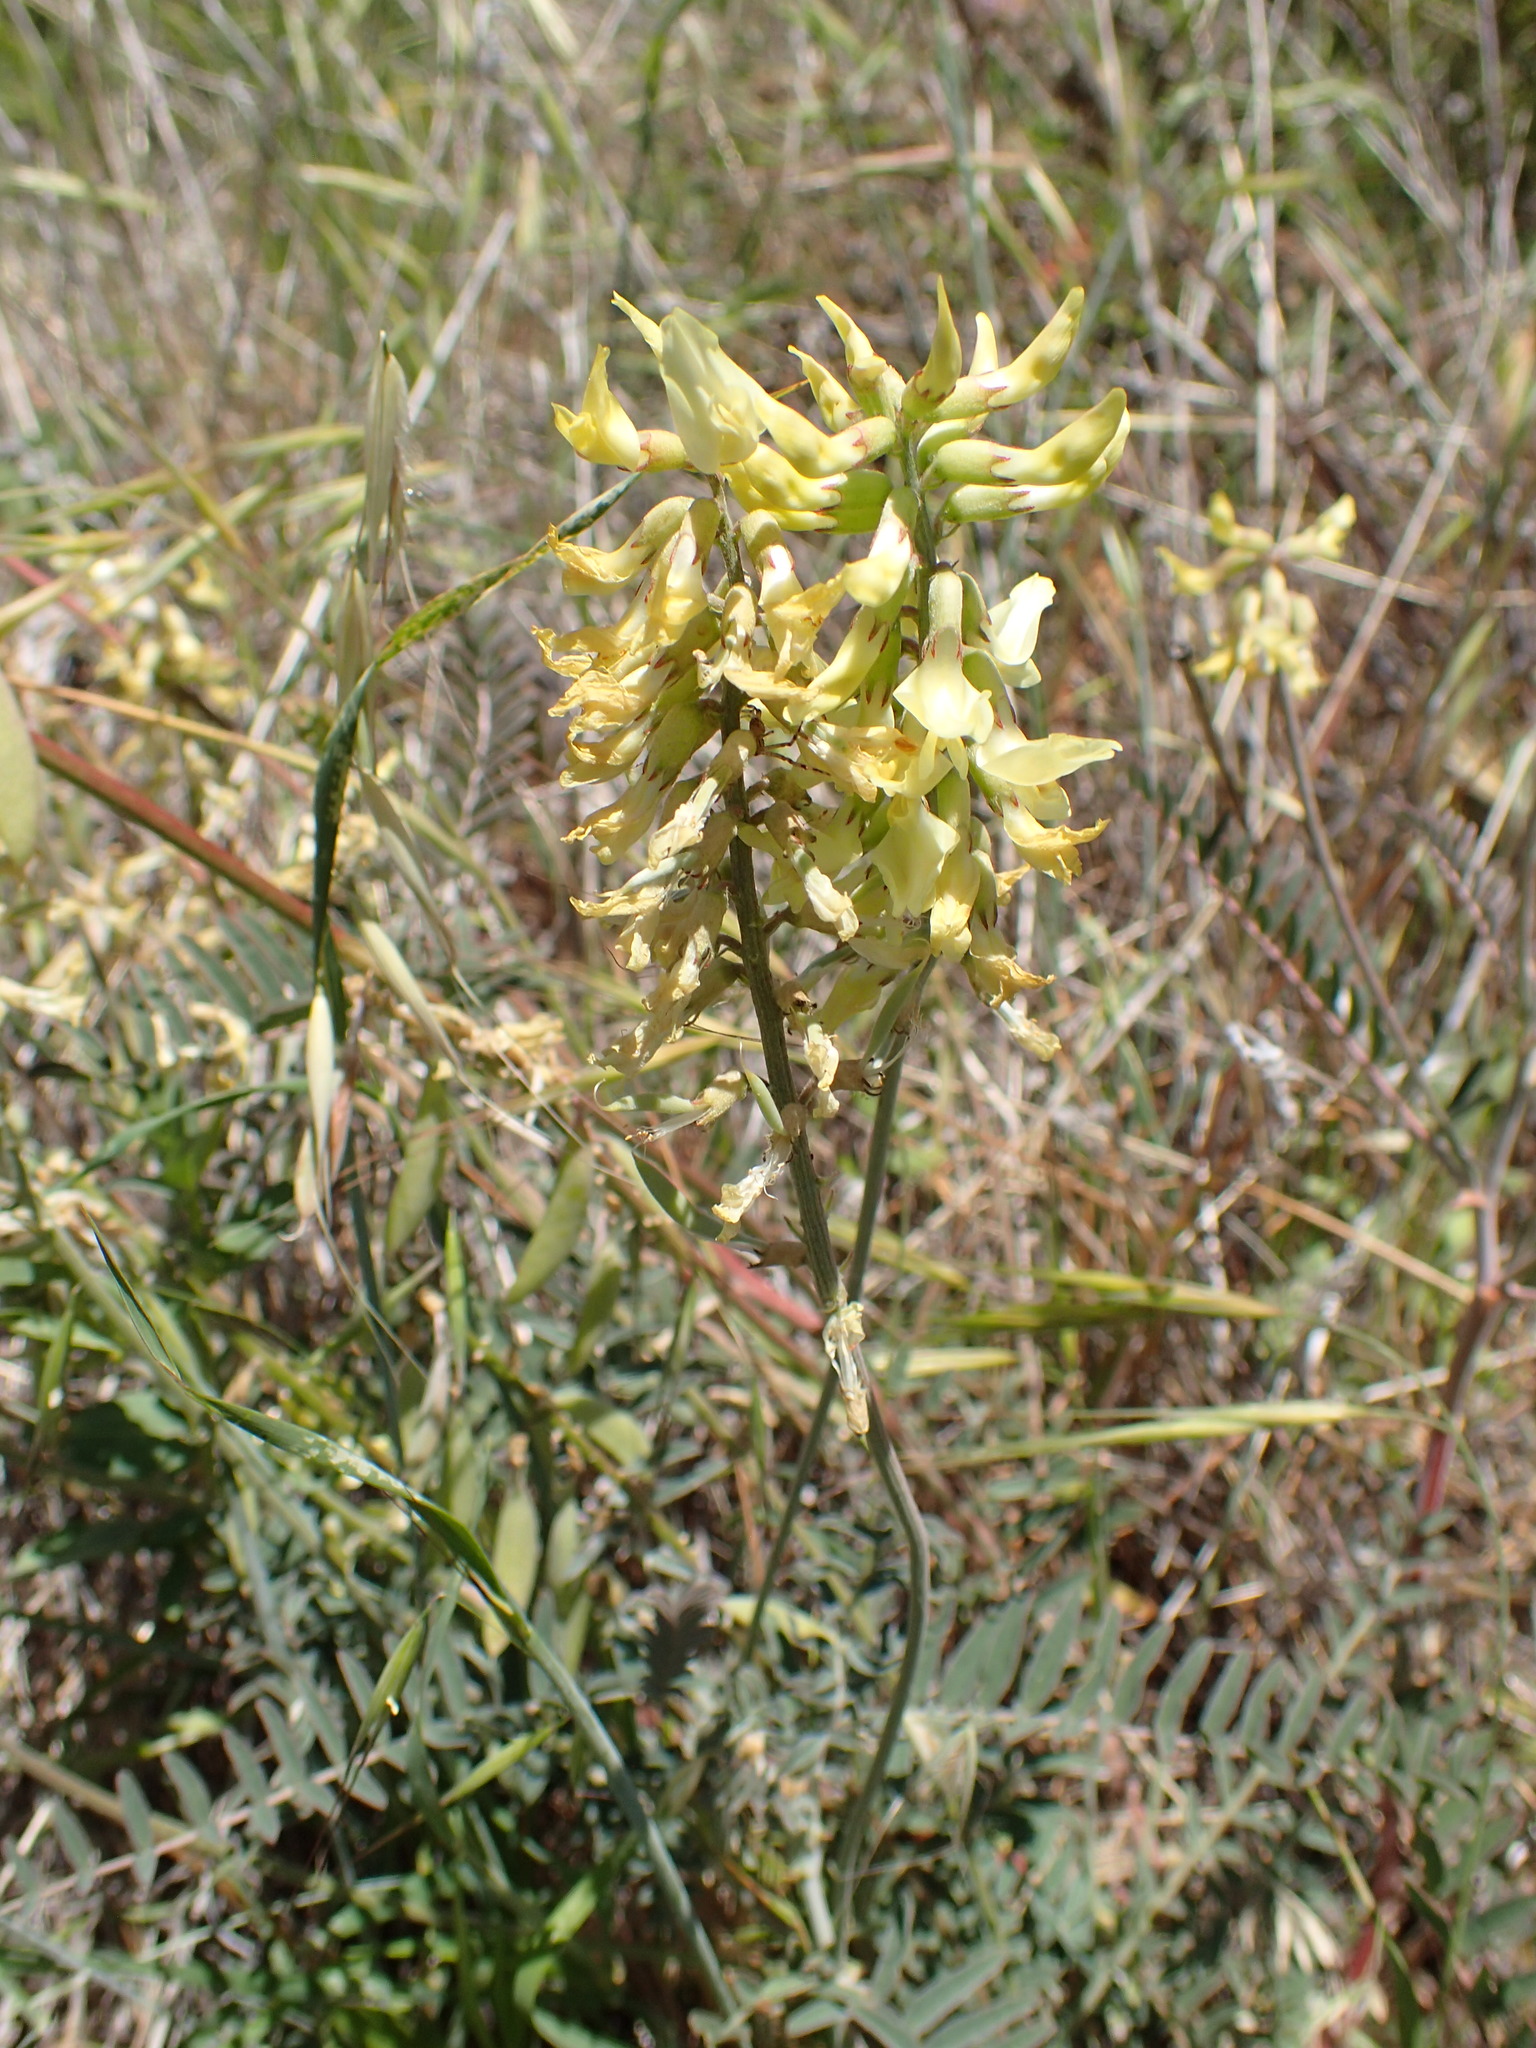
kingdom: Plantae
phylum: Tracheophyta
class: Magnoliopsida
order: Fabales
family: Fabaceae
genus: Astragalus
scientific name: Astragalus trichopodus
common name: Santa barbara milk-vetch
